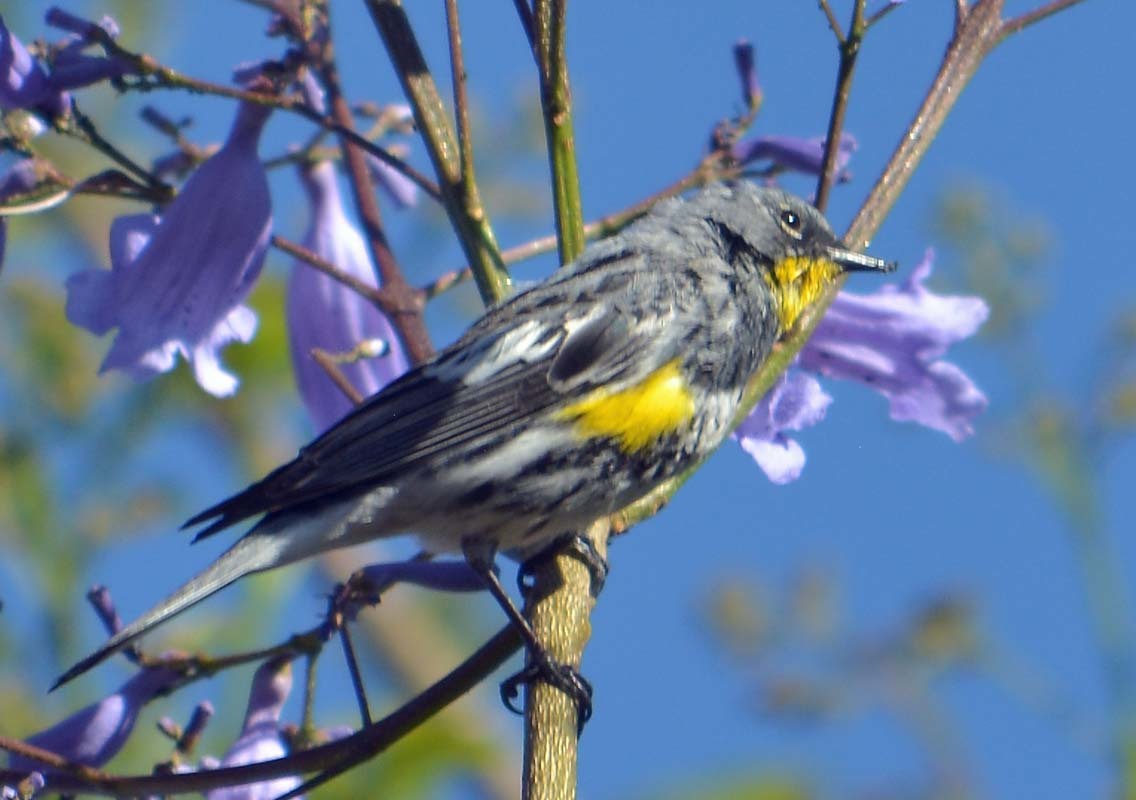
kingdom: Animalia
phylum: Chordata
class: Aves
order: Passeriformes
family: Parulidae
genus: Setophaga
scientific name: Setophaga auduboni
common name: Audubon's warbler
